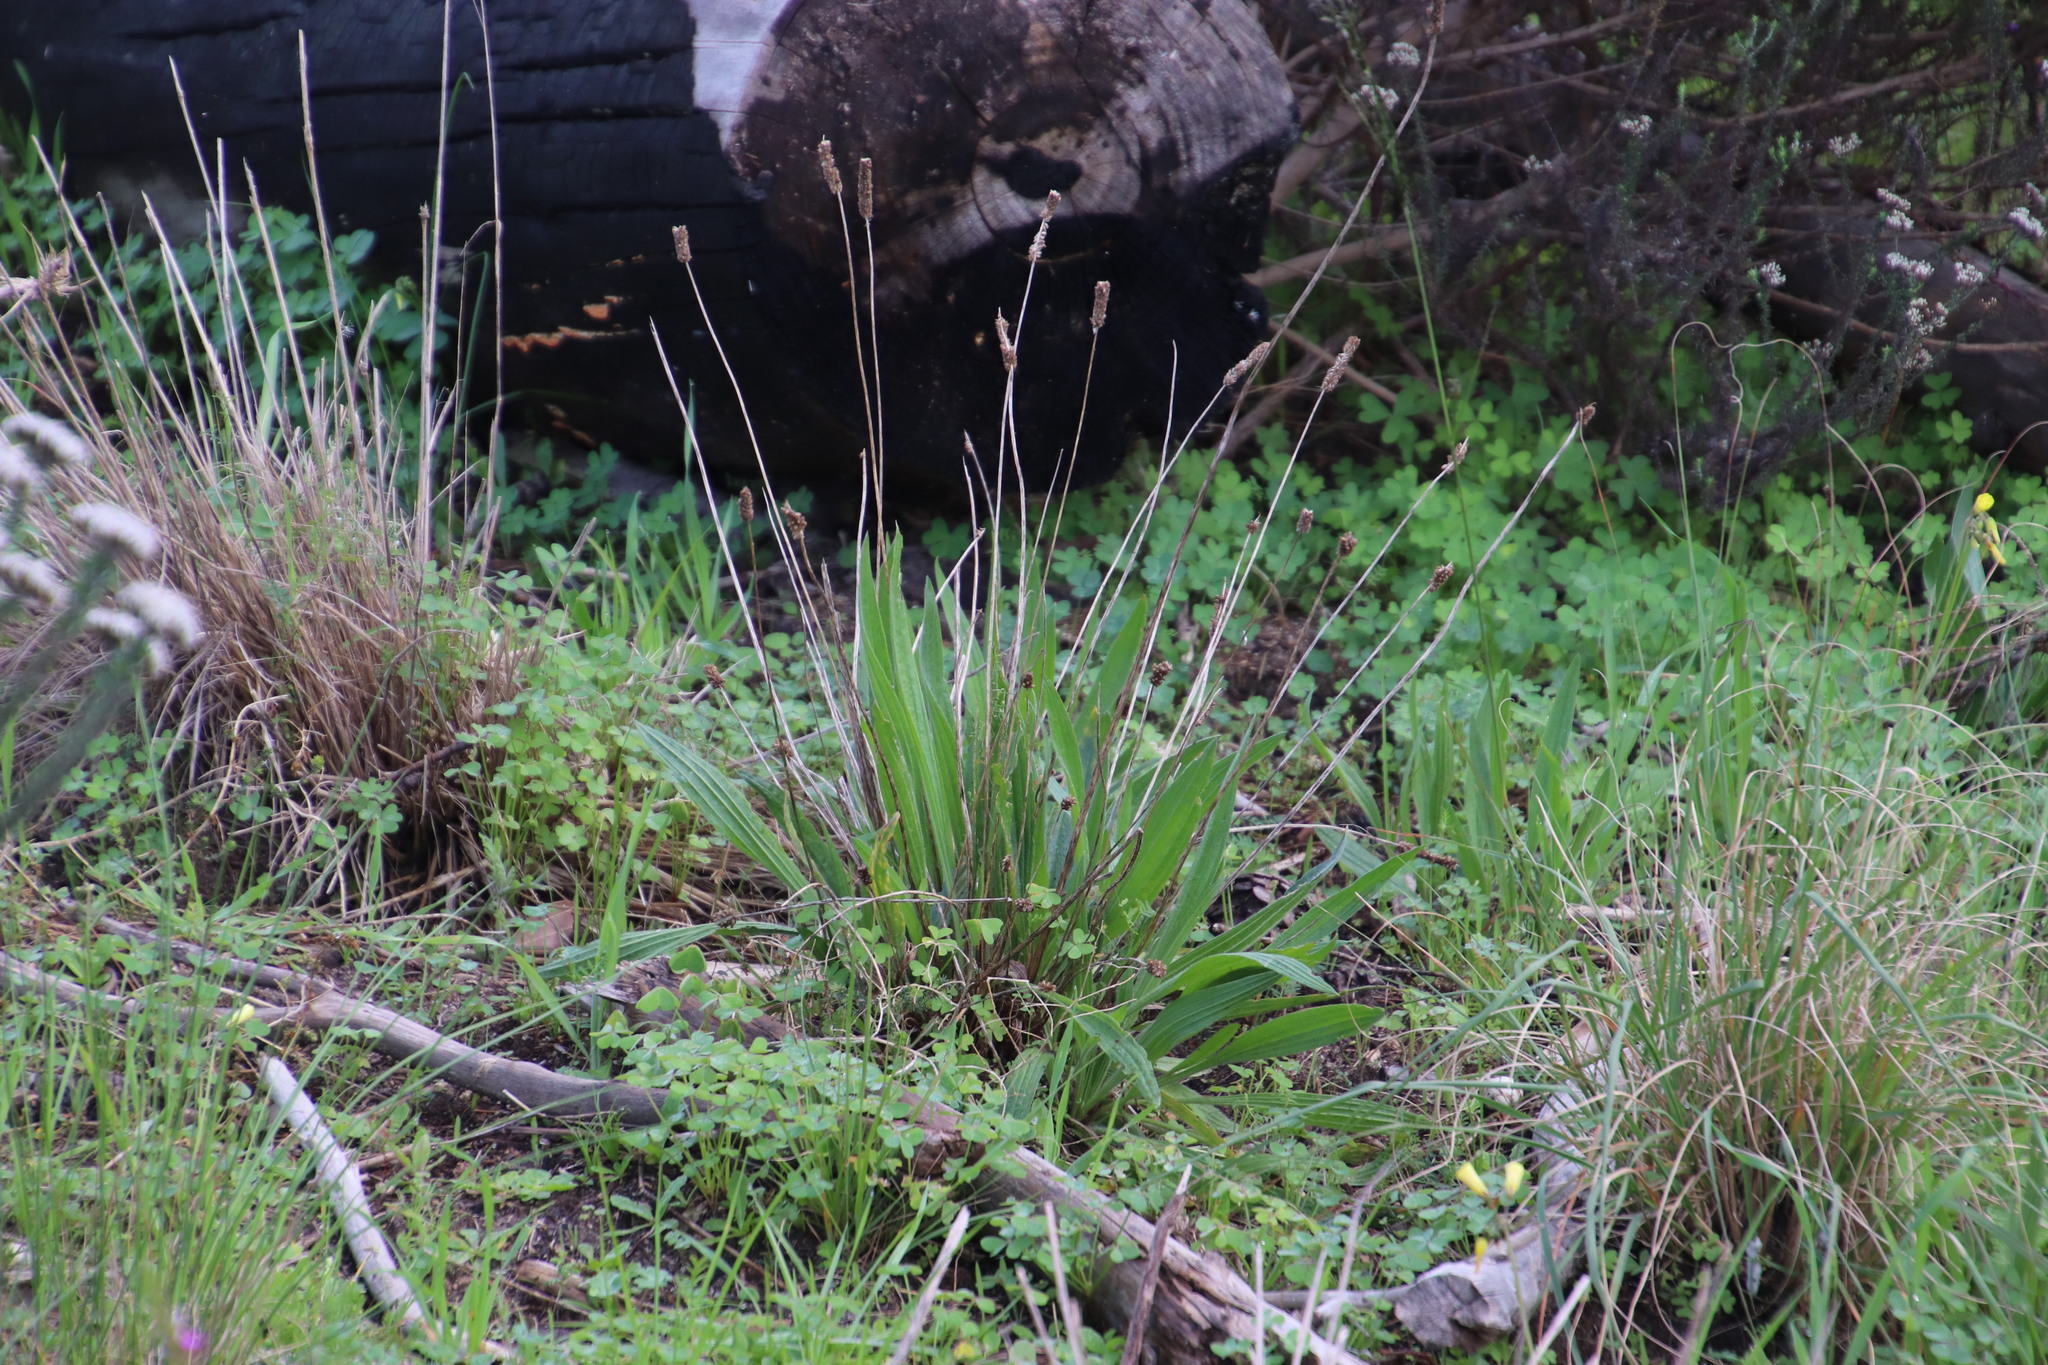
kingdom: Plantae
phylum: Tracheophyta
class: Magnoliopsida
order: Lamiales
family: Plantaginaceae
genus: Plantago
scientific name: Plantago lanceolata
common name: Ribwort plantain
